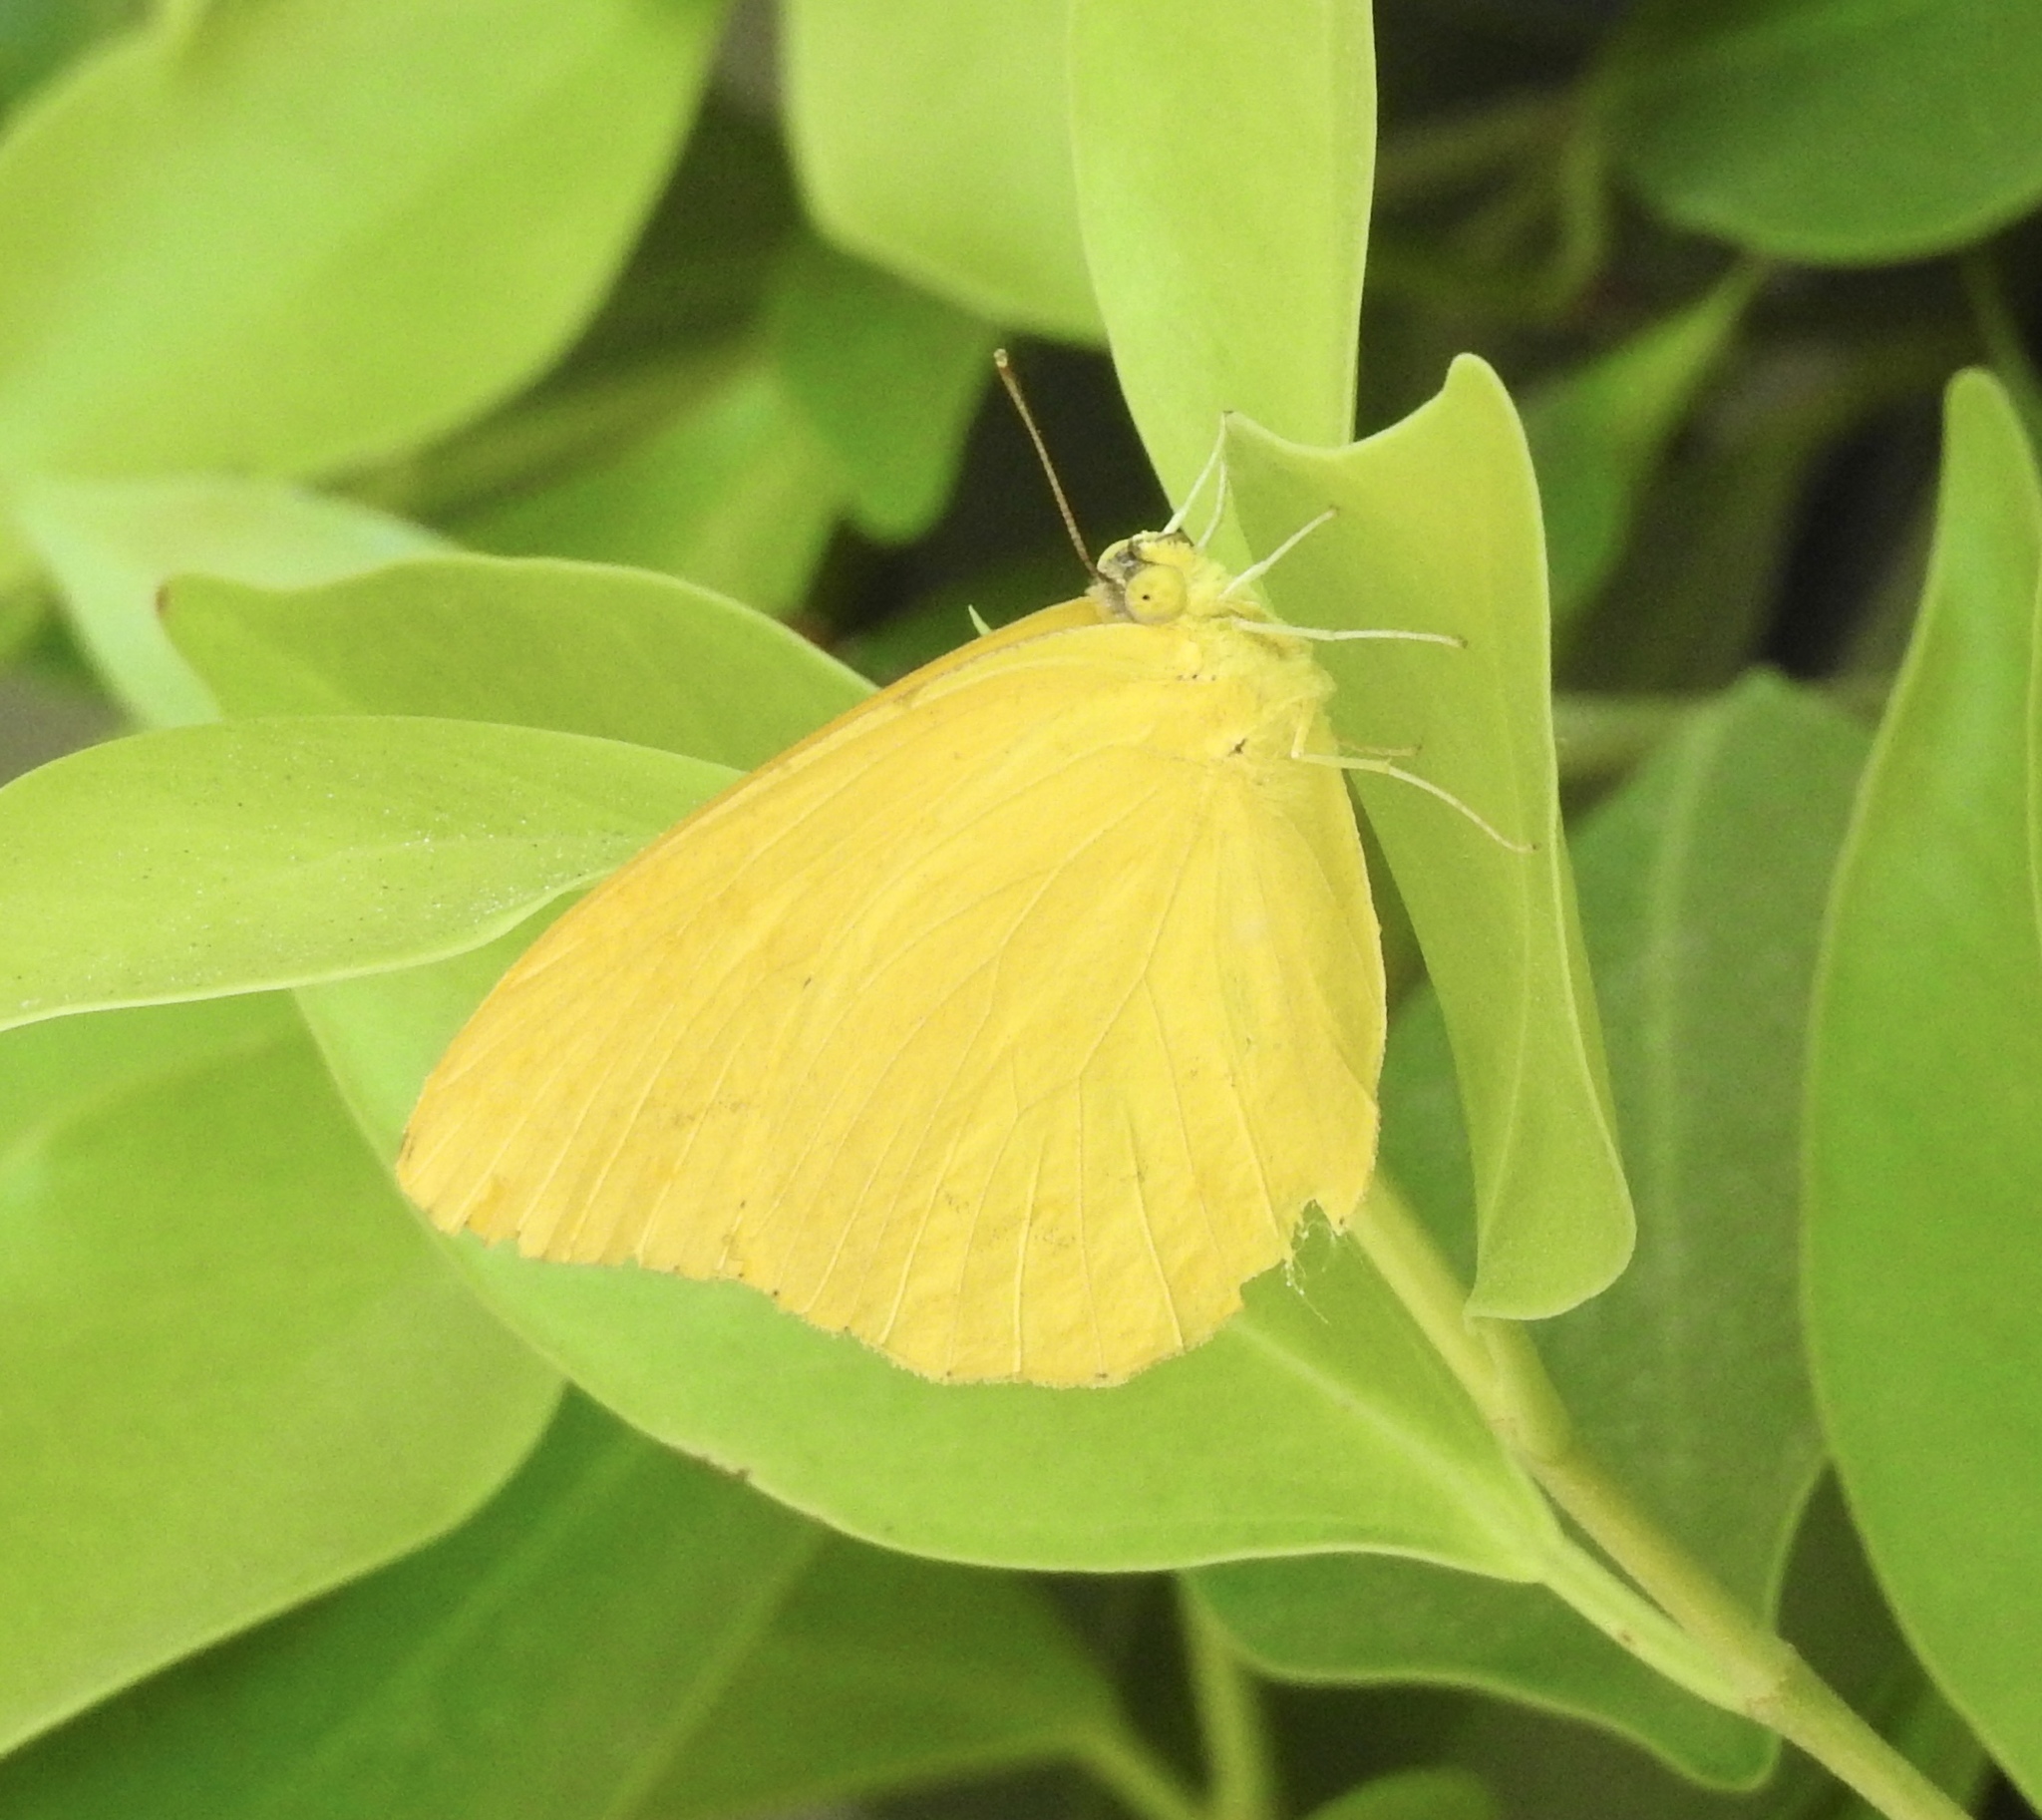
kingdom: Animalia
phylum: Arthropoda
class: Insecta
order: Lepidoptera
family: Pieridae
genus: Phoebis
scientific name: Phoebis agarithe
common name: Large orange sulphur
